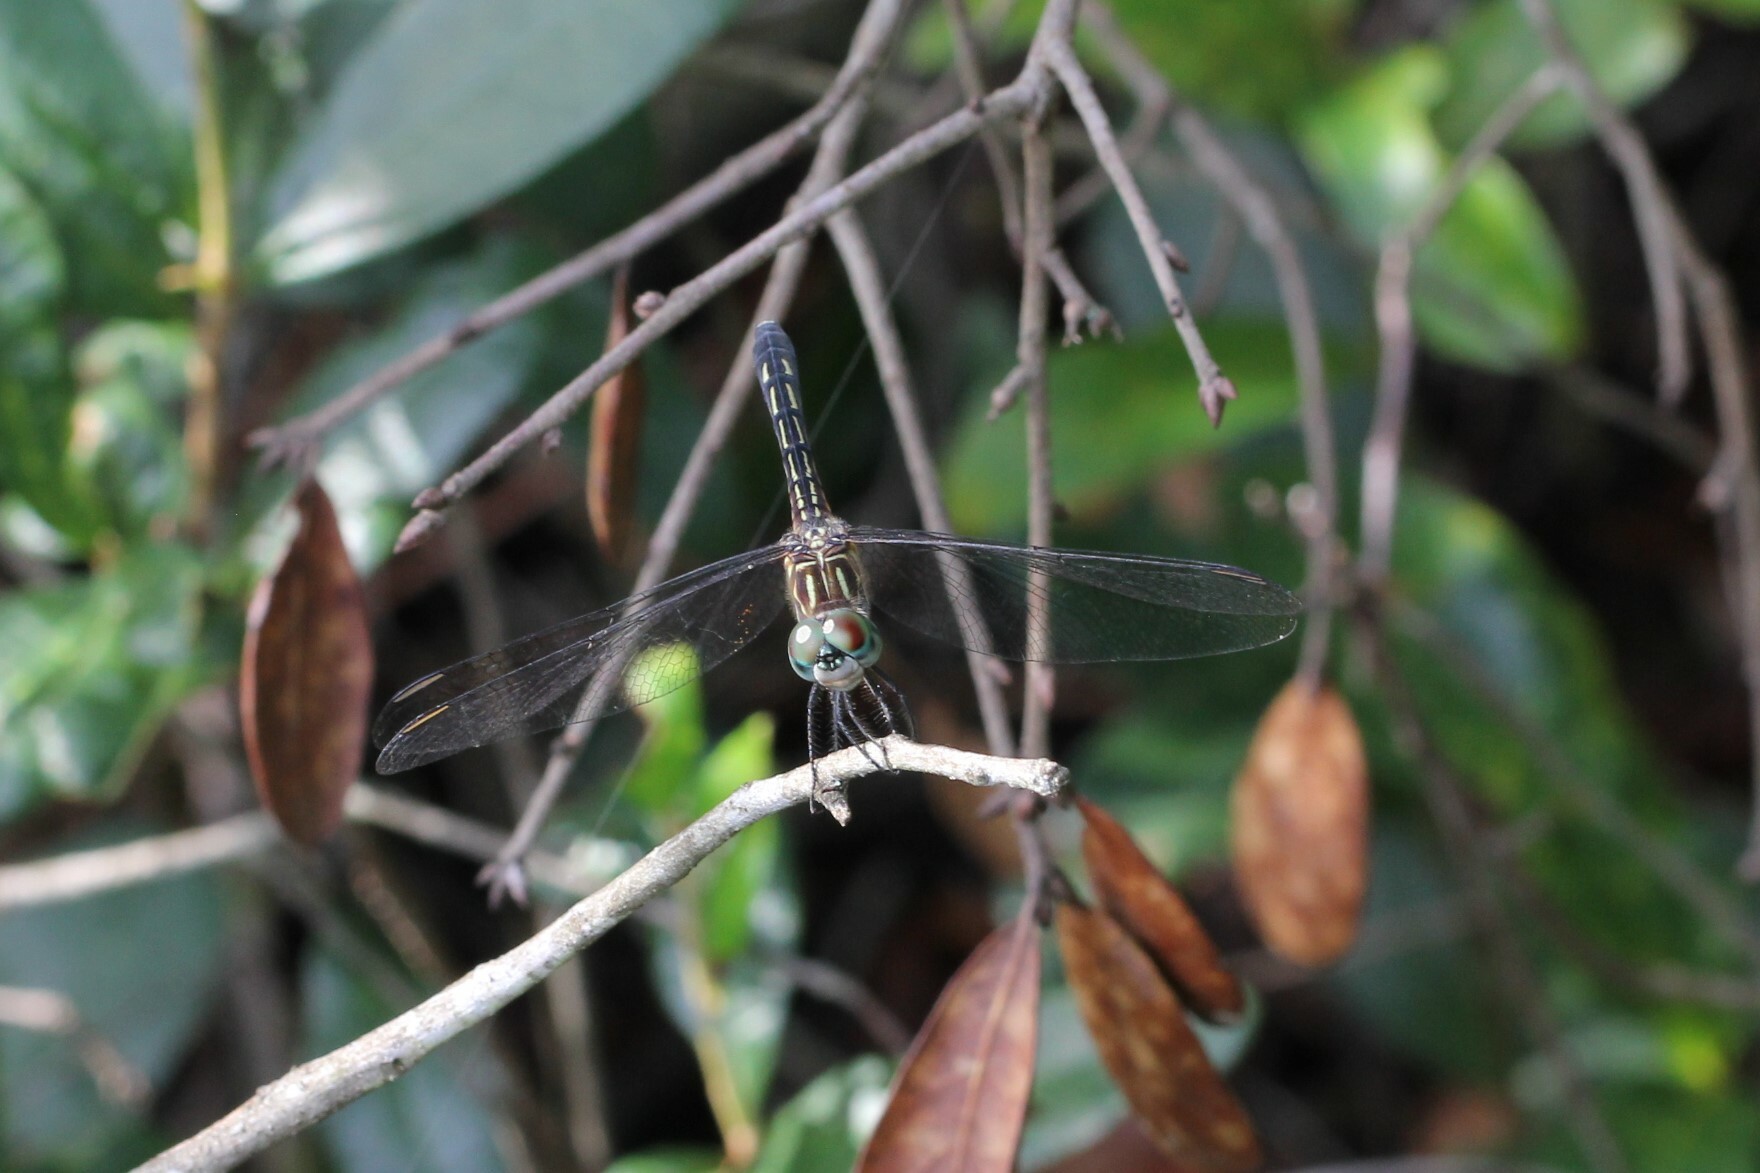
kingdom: Animalia
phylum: Arthropoda
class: Insecta
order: Odonata
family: Libellulidae
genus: Pachydiplax
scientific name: Pachydiplax longipennis
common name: Blue dasher
